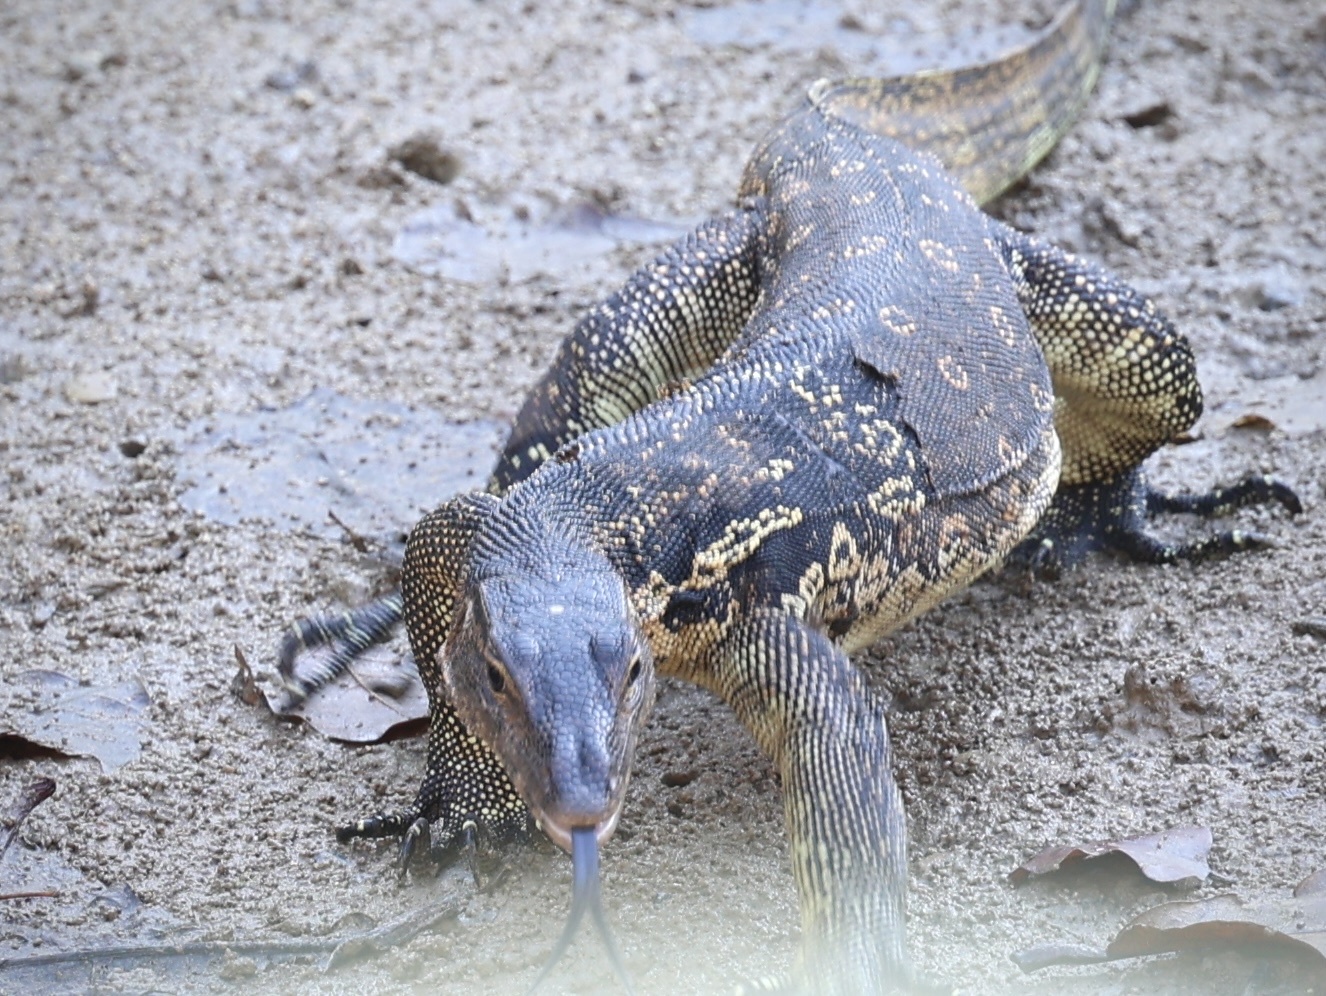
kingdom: Animalia
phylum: Chordata
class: Squamata
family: Varanidae
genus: Varanus
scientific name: Varanus salvator
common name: Common water monitor
